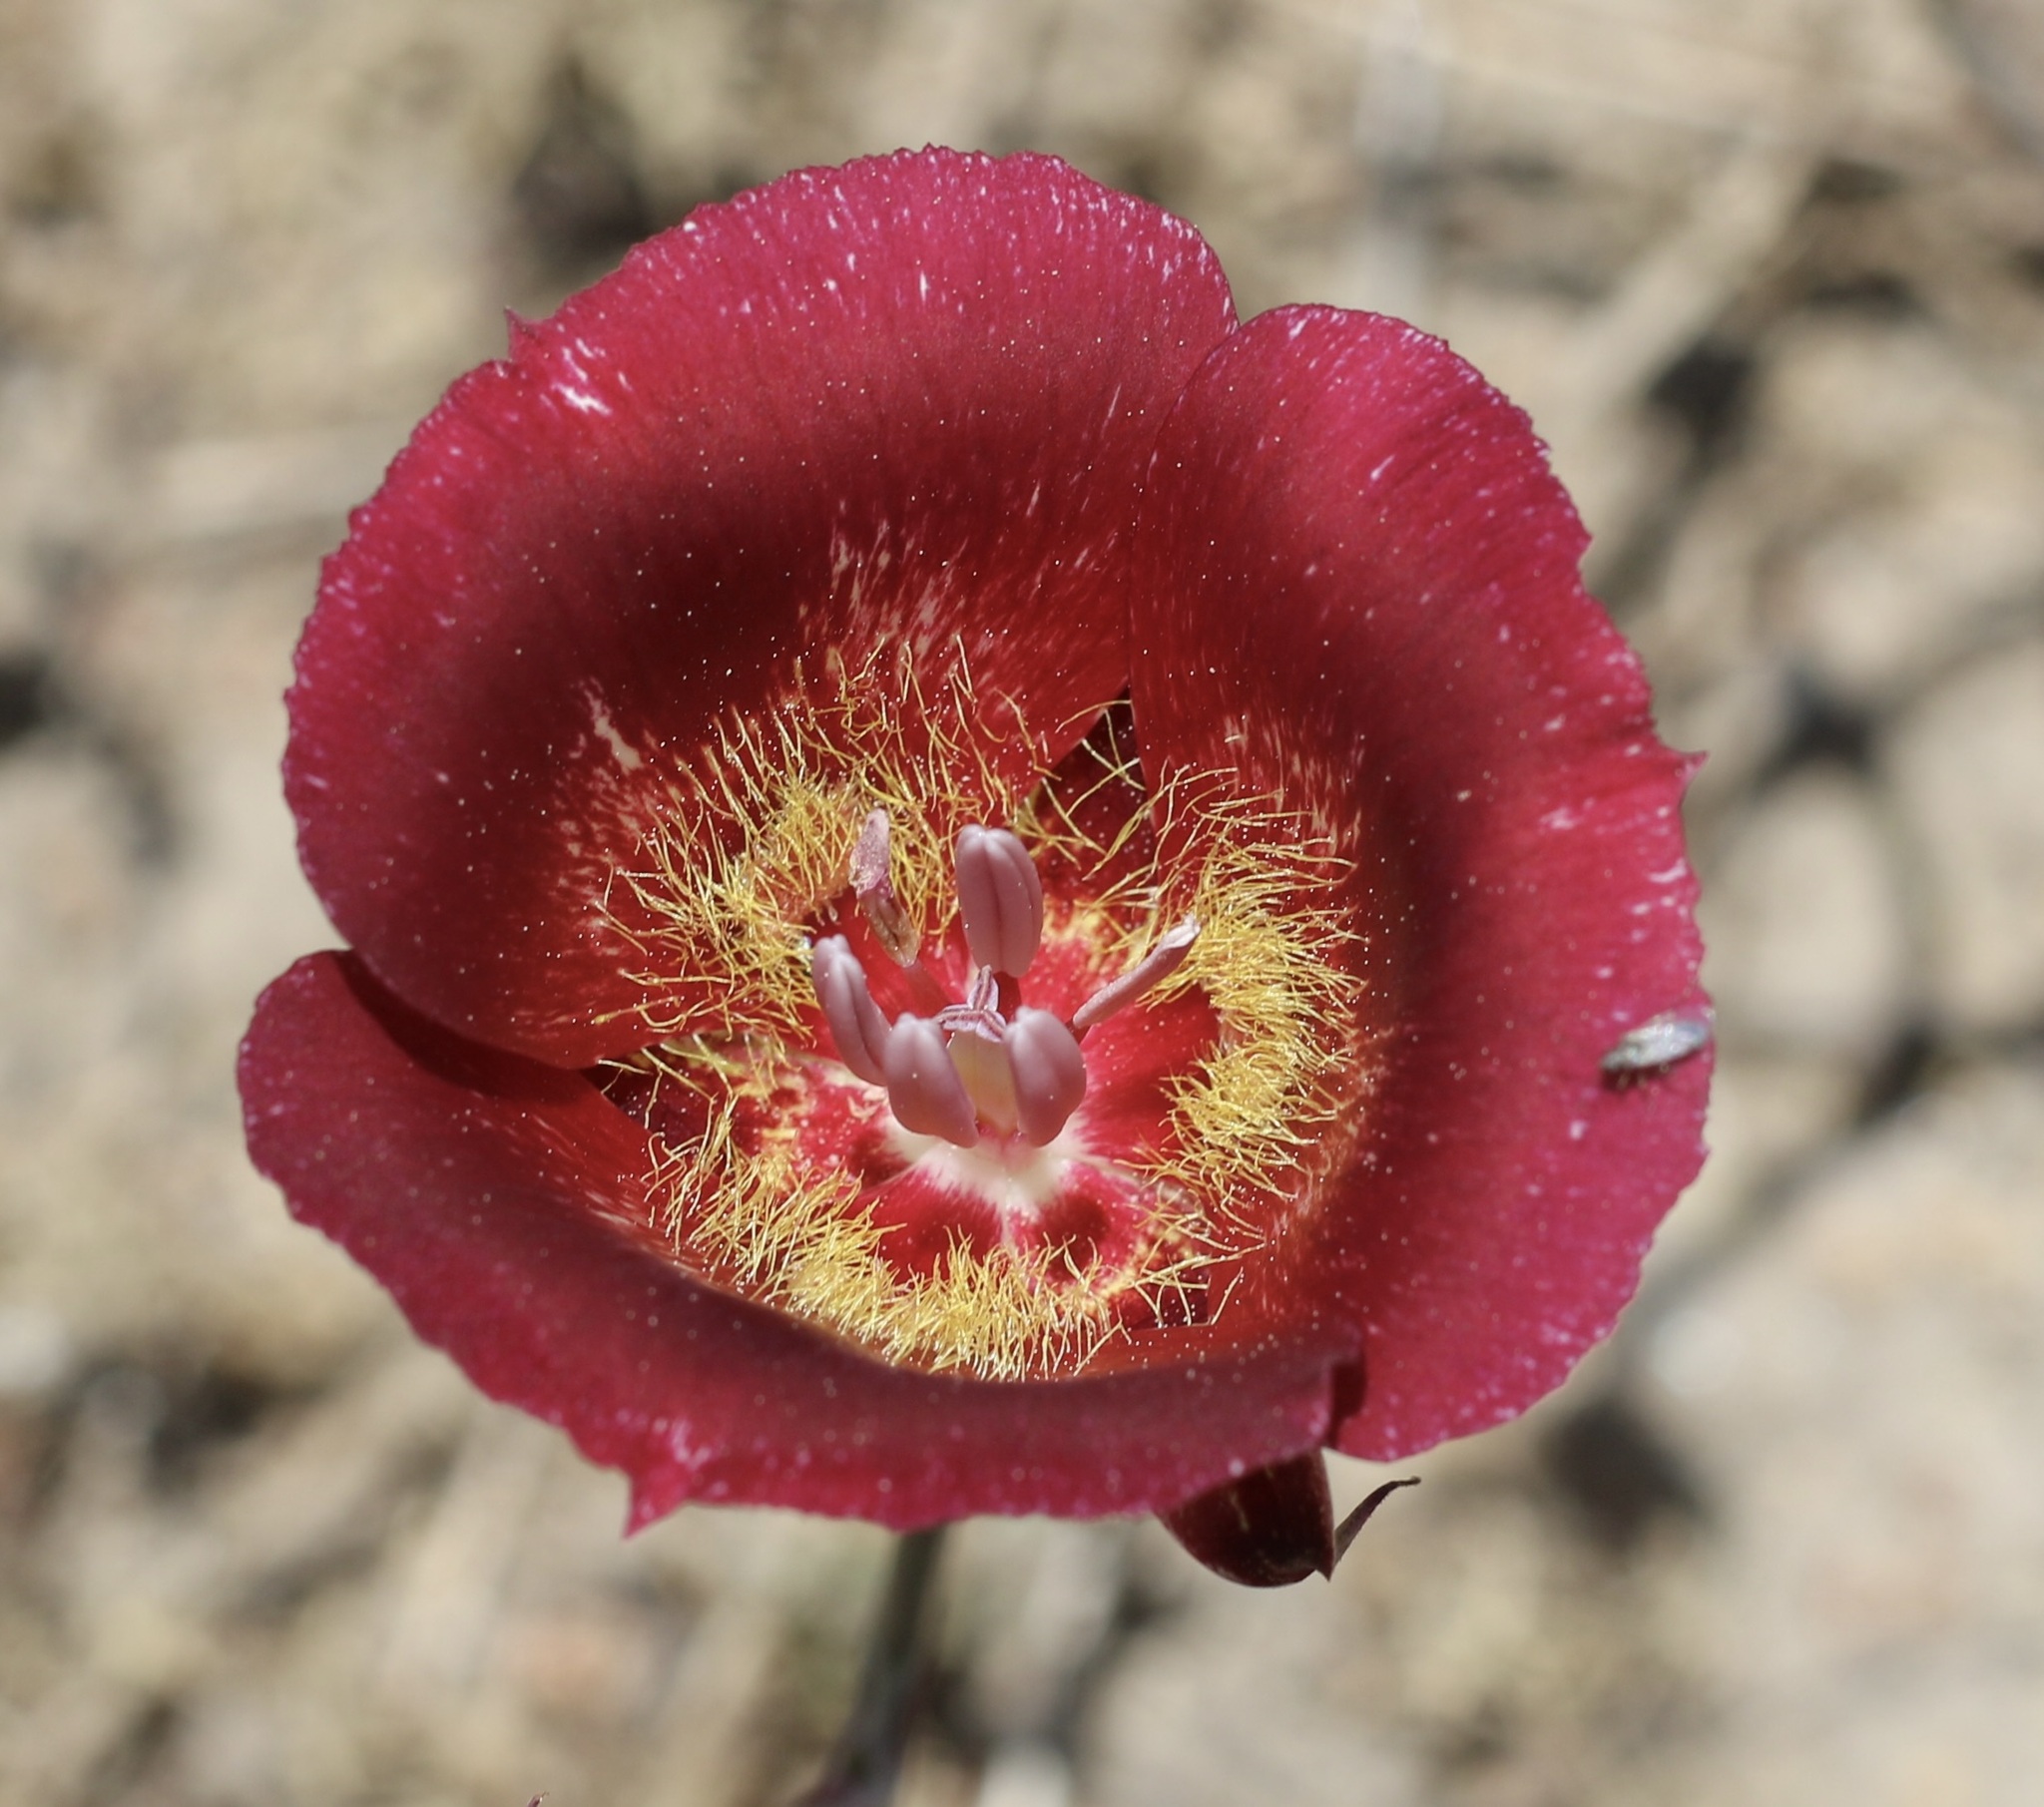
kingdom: Plantae
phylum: Tracheophyta
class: Liliopsida
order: Liliales
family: Liliaceae
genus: Calochortus
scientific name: Calochortus venustus
